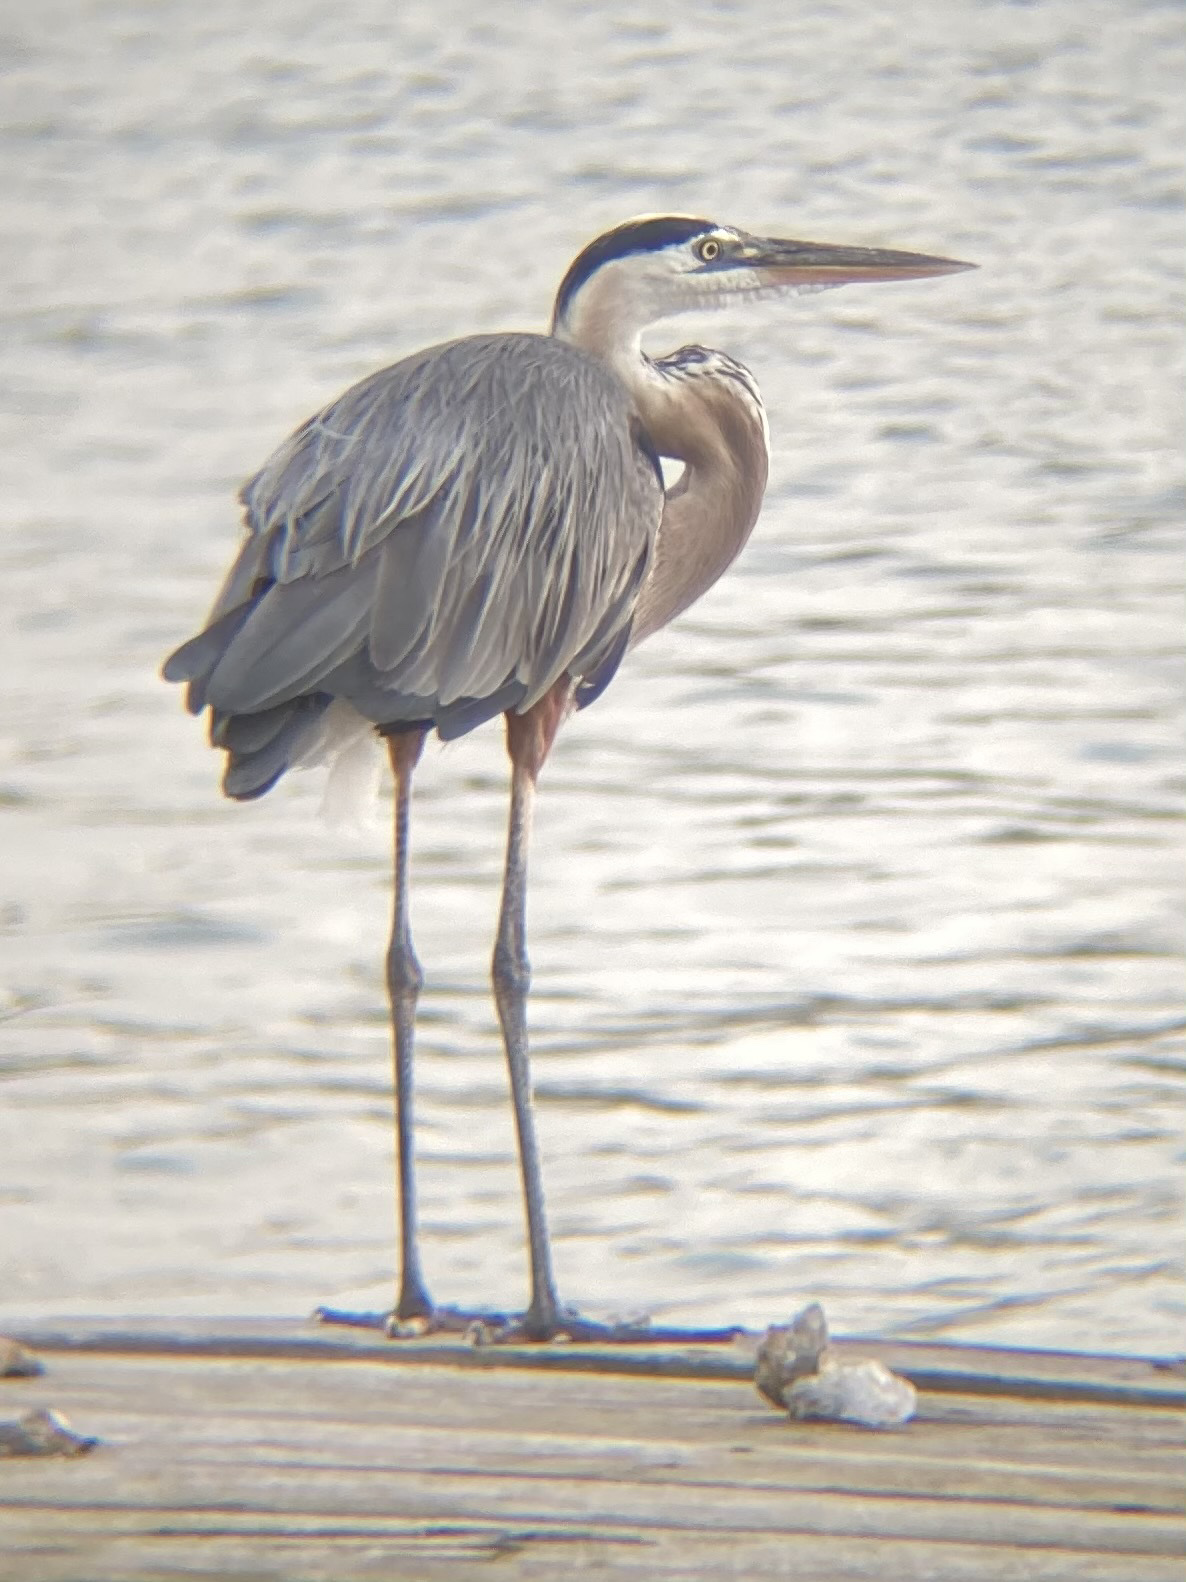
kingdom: Animalia
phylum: Chordata
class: Aves
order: Pelecaniformes
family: Ardeidae
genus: Ardea
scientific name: Ardea herodias
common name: Great blue heron
